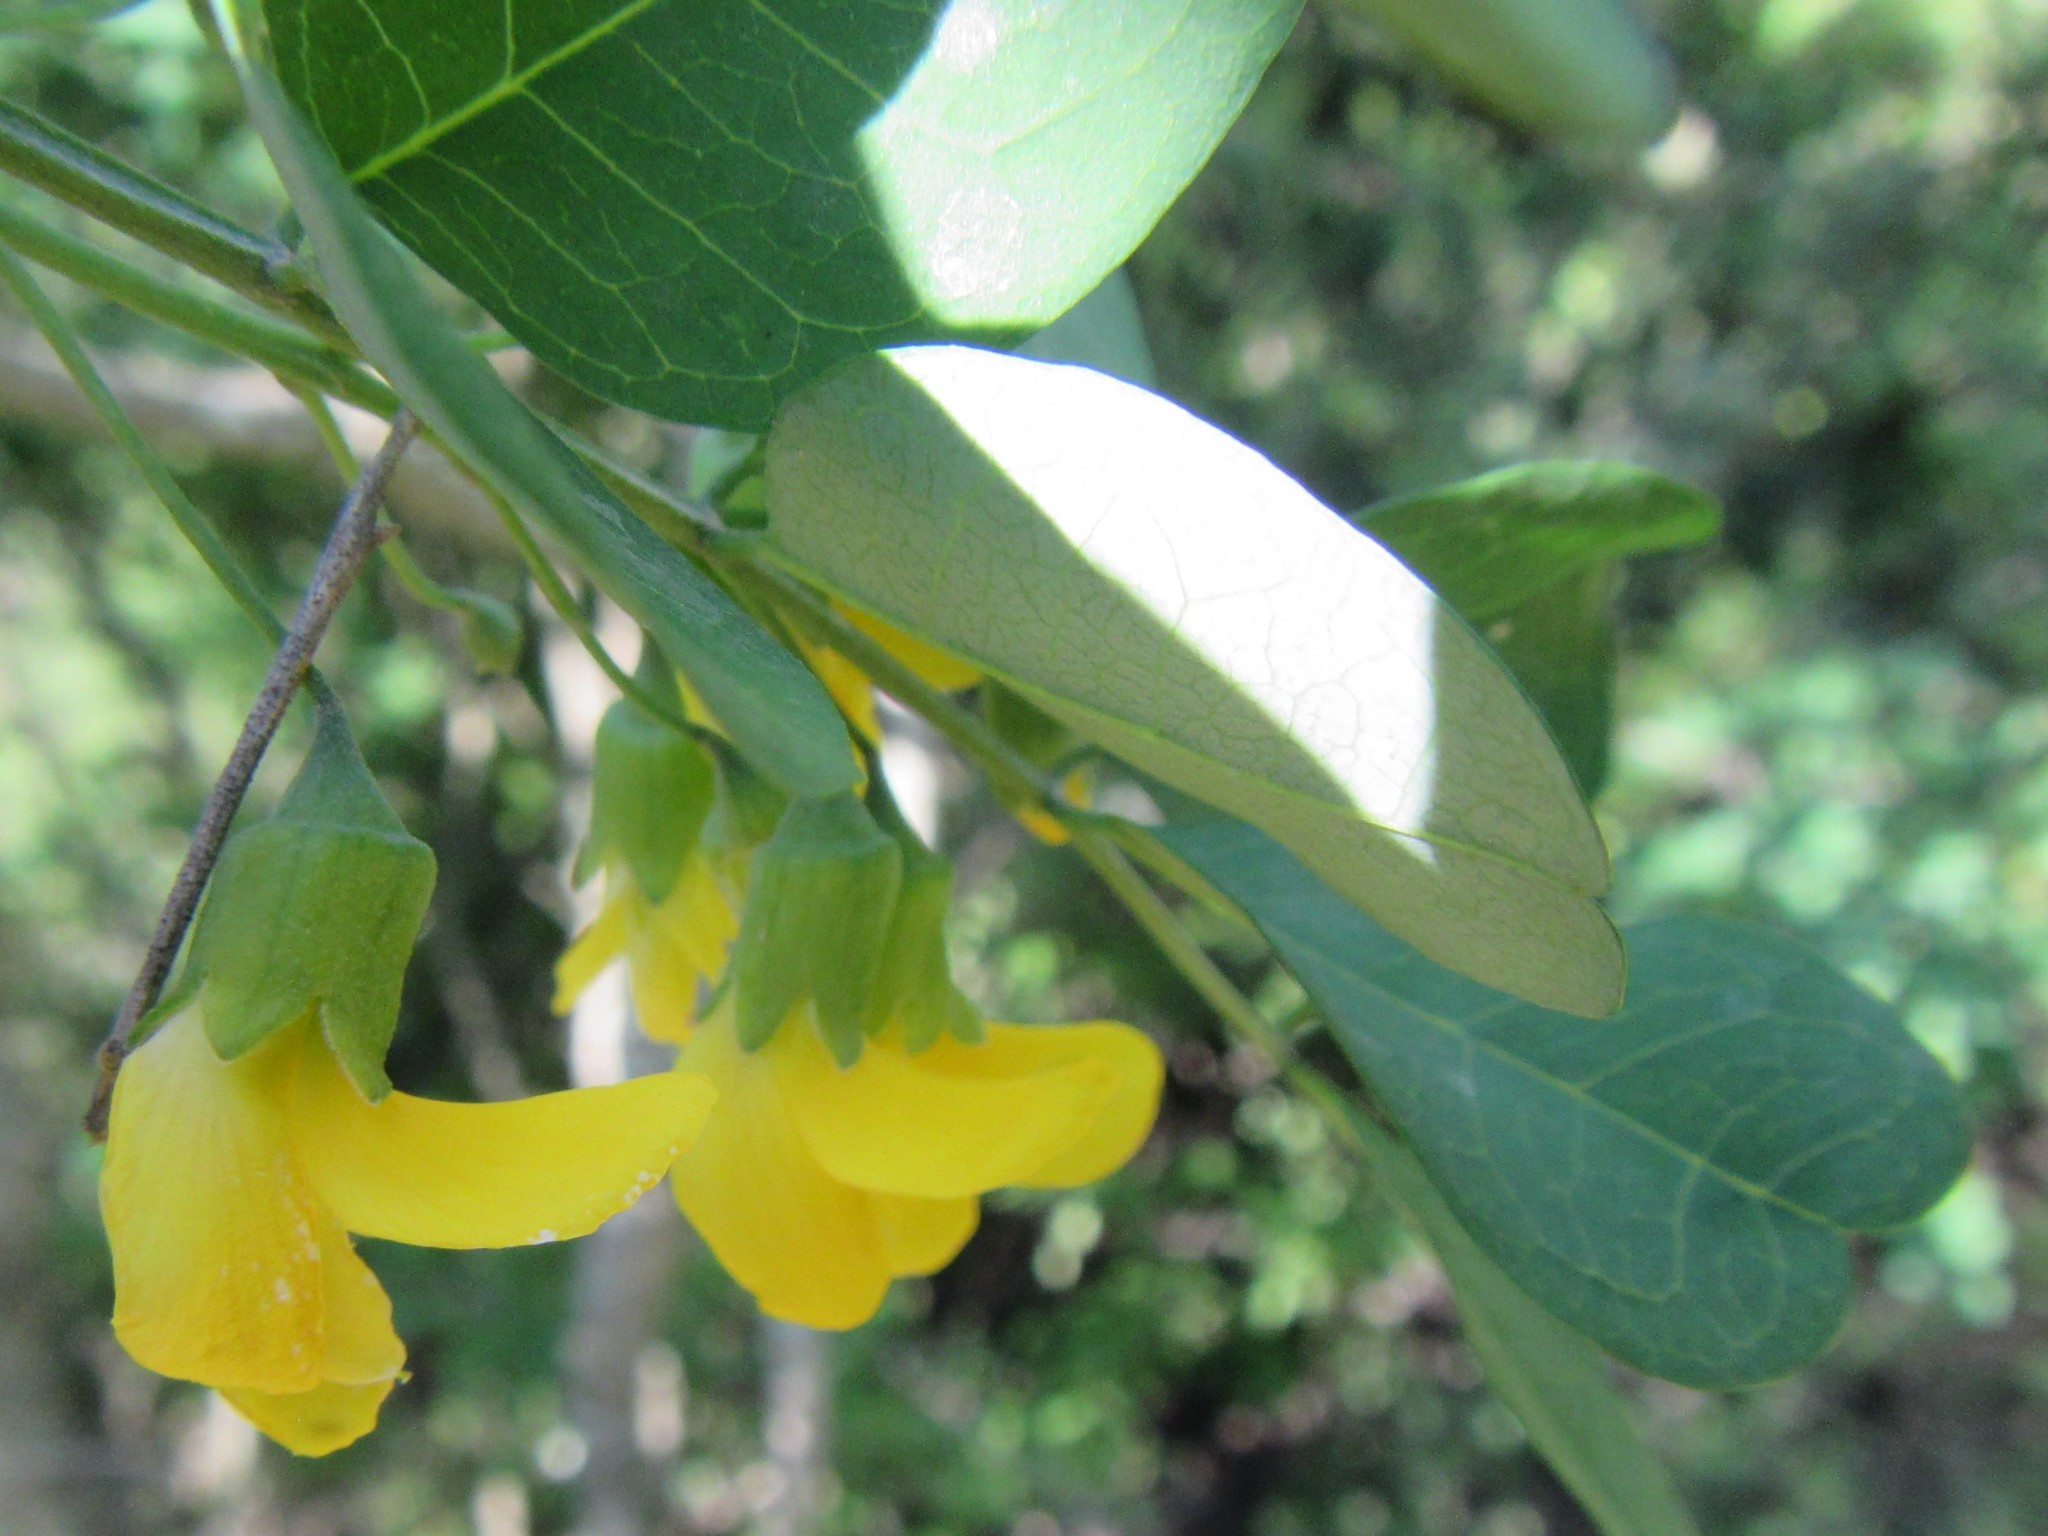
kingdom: Plantae
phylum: Tracheophyta
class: Magnoliopsida
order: Fabales
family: Fabaceae
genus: Calpurnia
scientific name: Calpurnia aurea
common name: Wild laburnum
